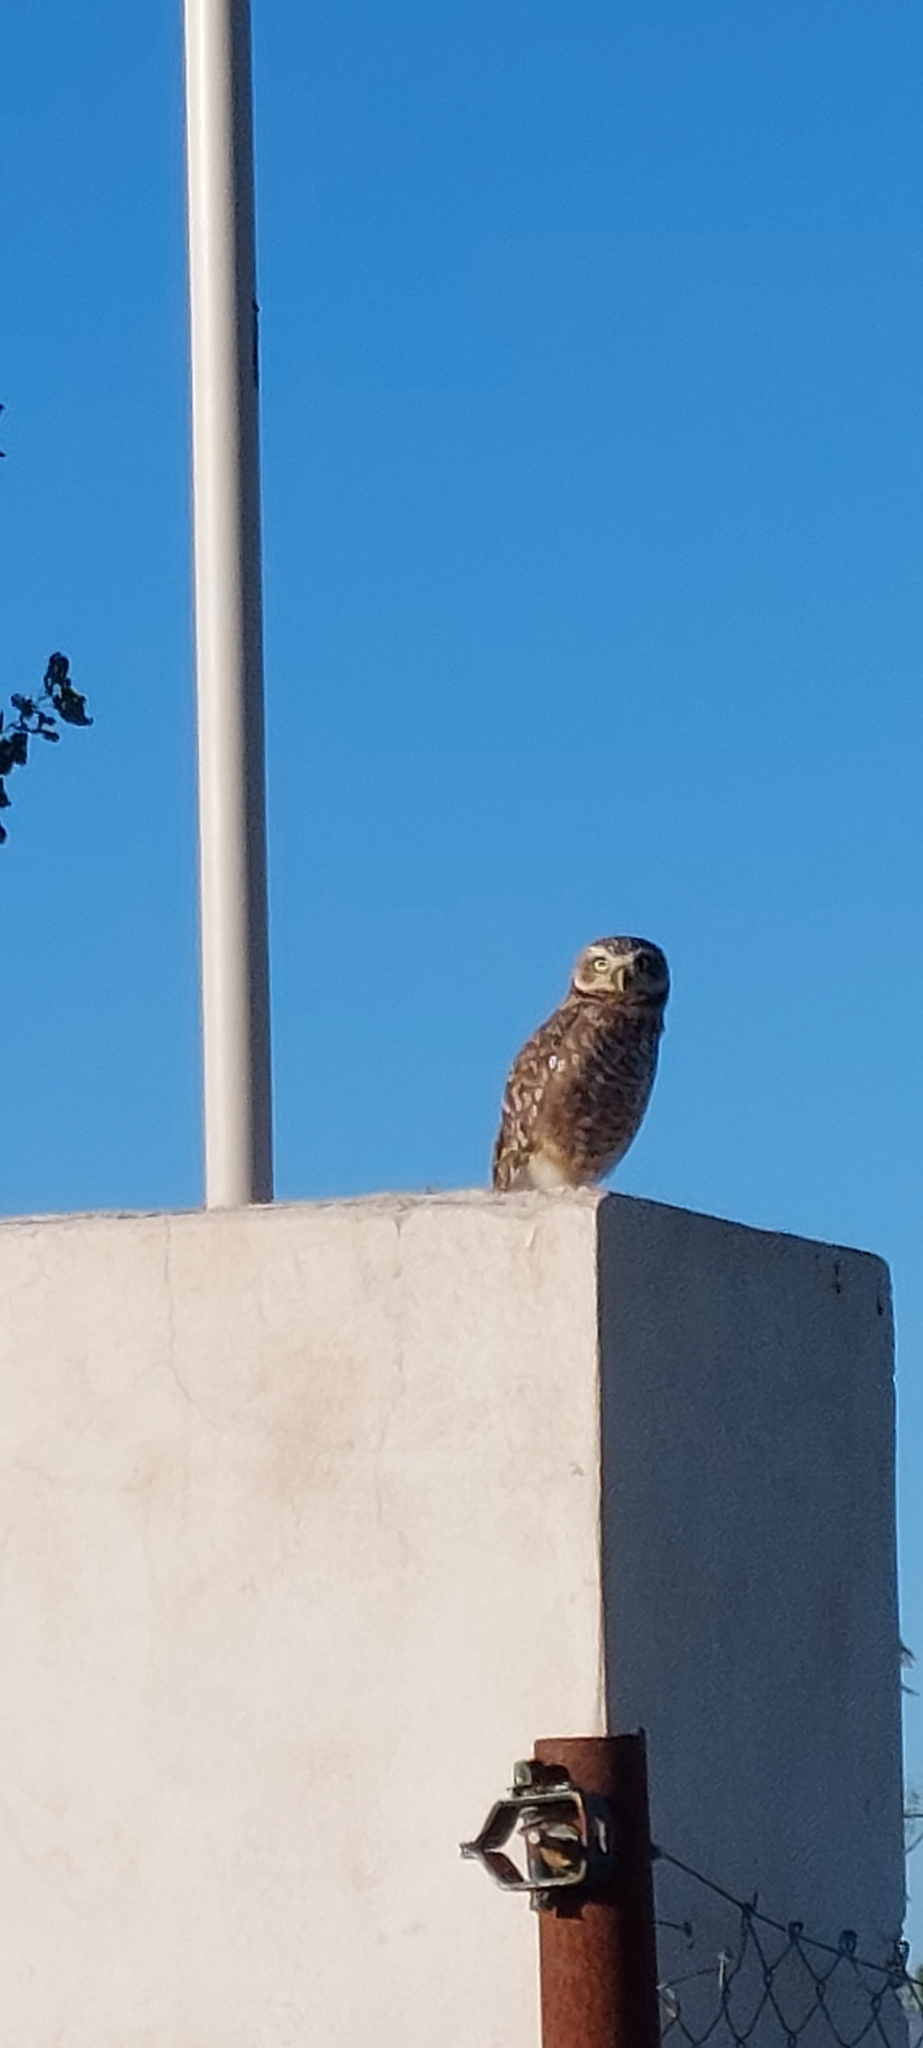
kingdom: Animalia
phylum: Chordata
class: Aves
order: Strigiformes
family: Strigidae
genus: Athene
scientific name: Athene cunicularia
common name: Burrowing owl
